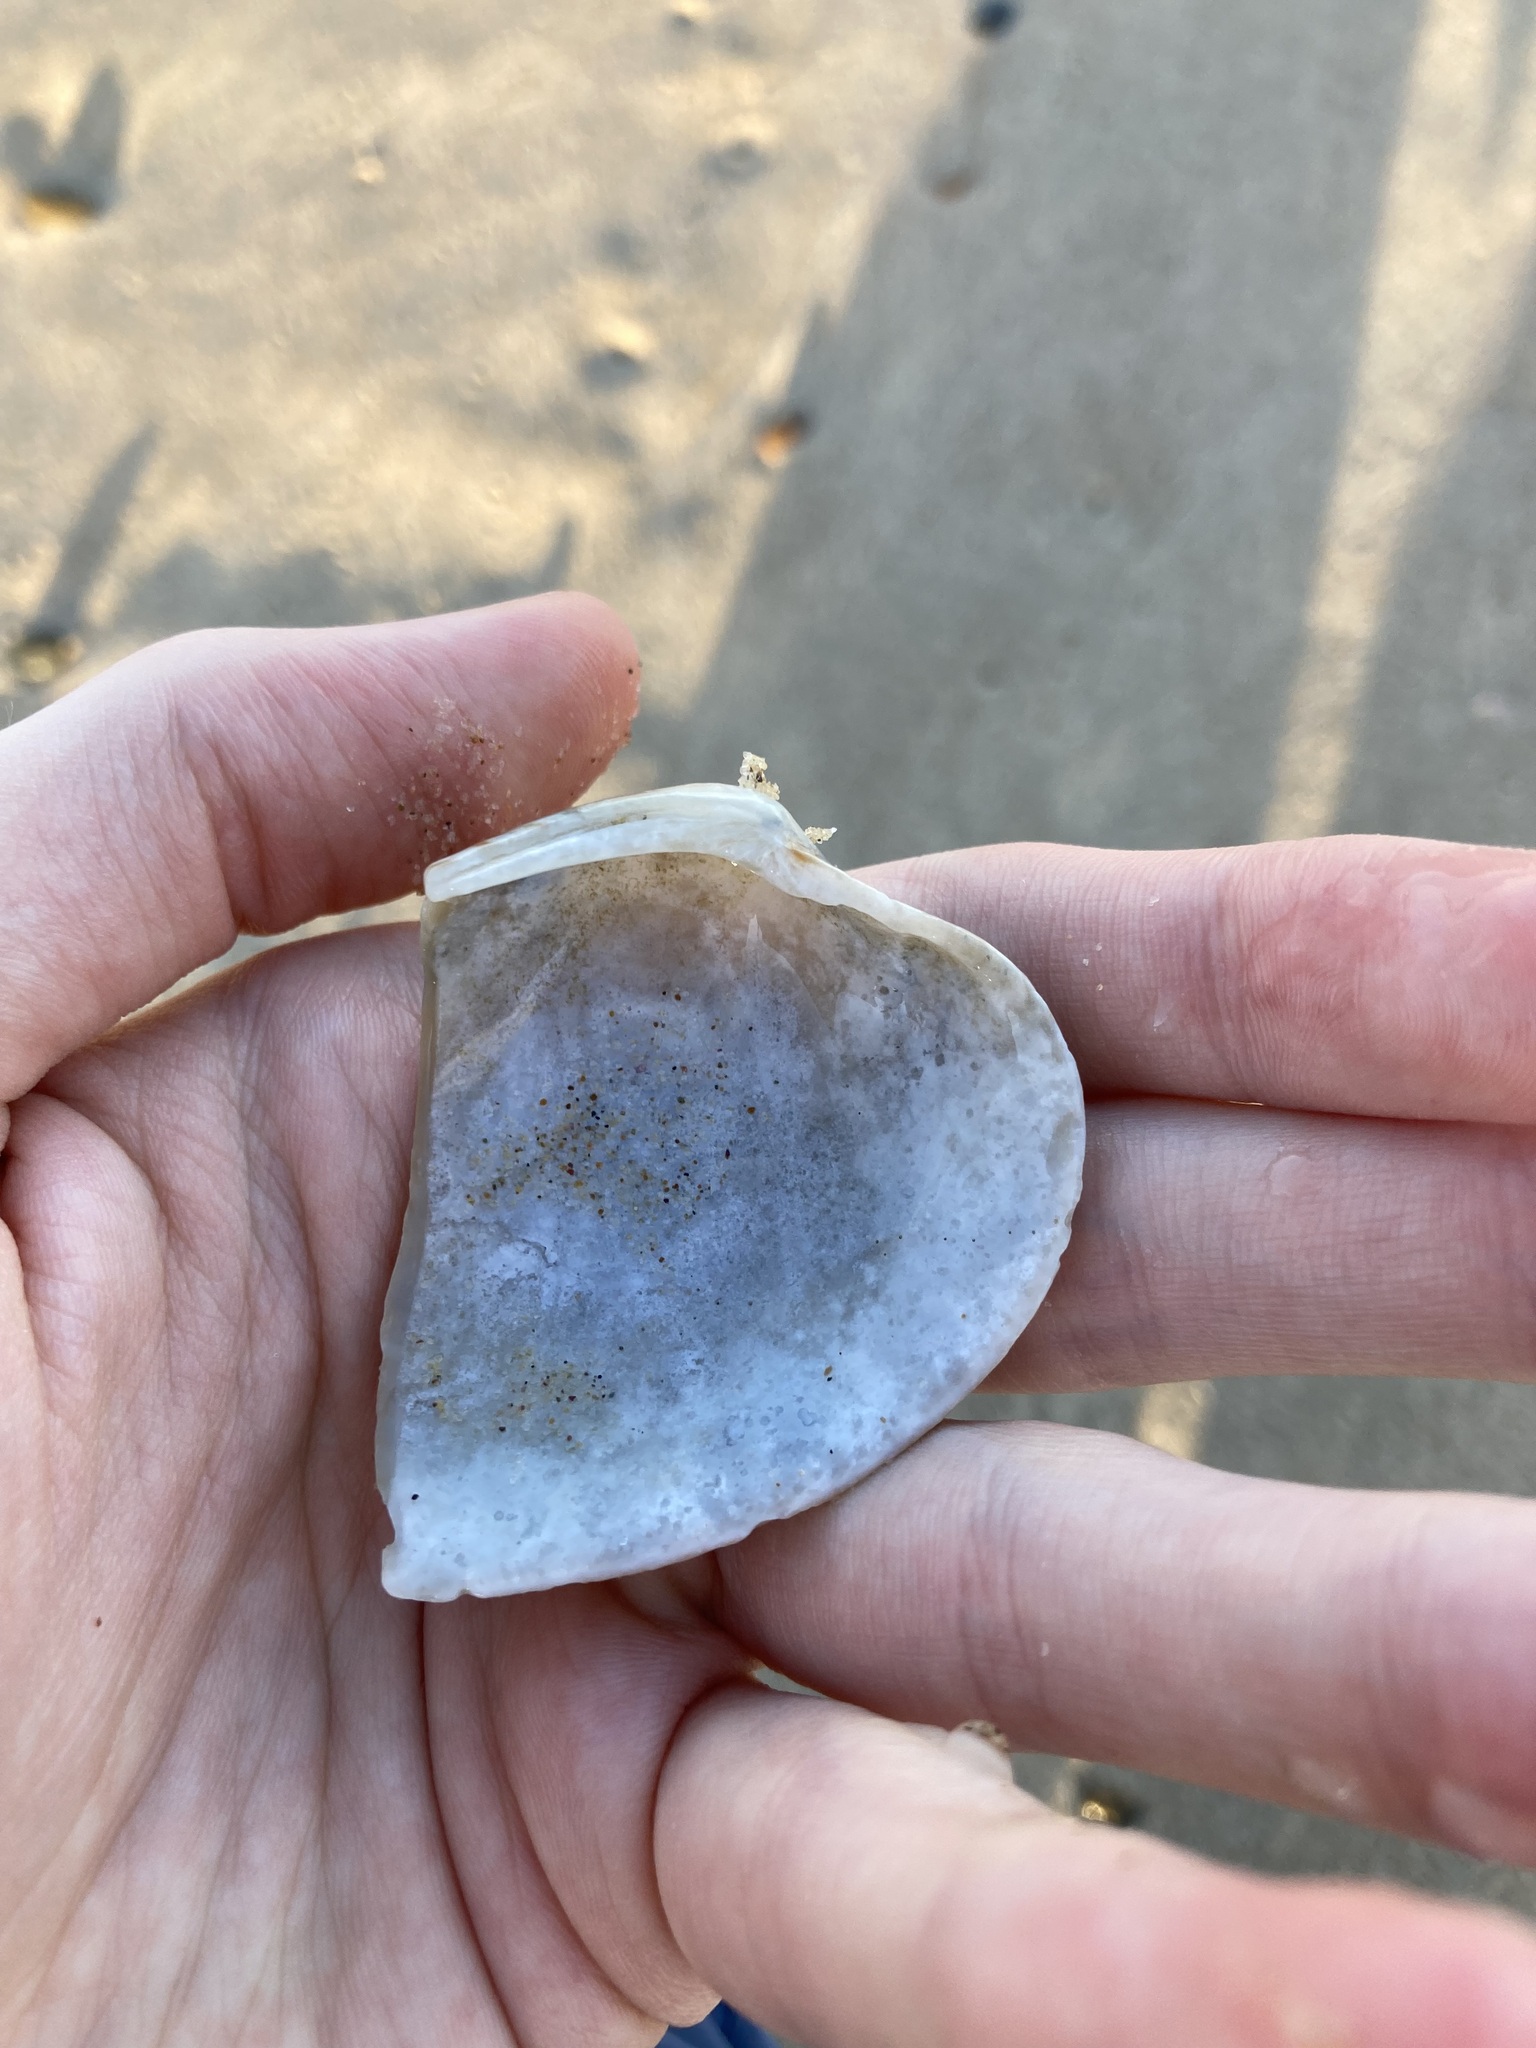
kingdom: Animalia
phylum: Mollusca
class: Bivalvia
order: Venerida
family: Veneridae
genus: Tapes
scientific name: Tapes conspersus
